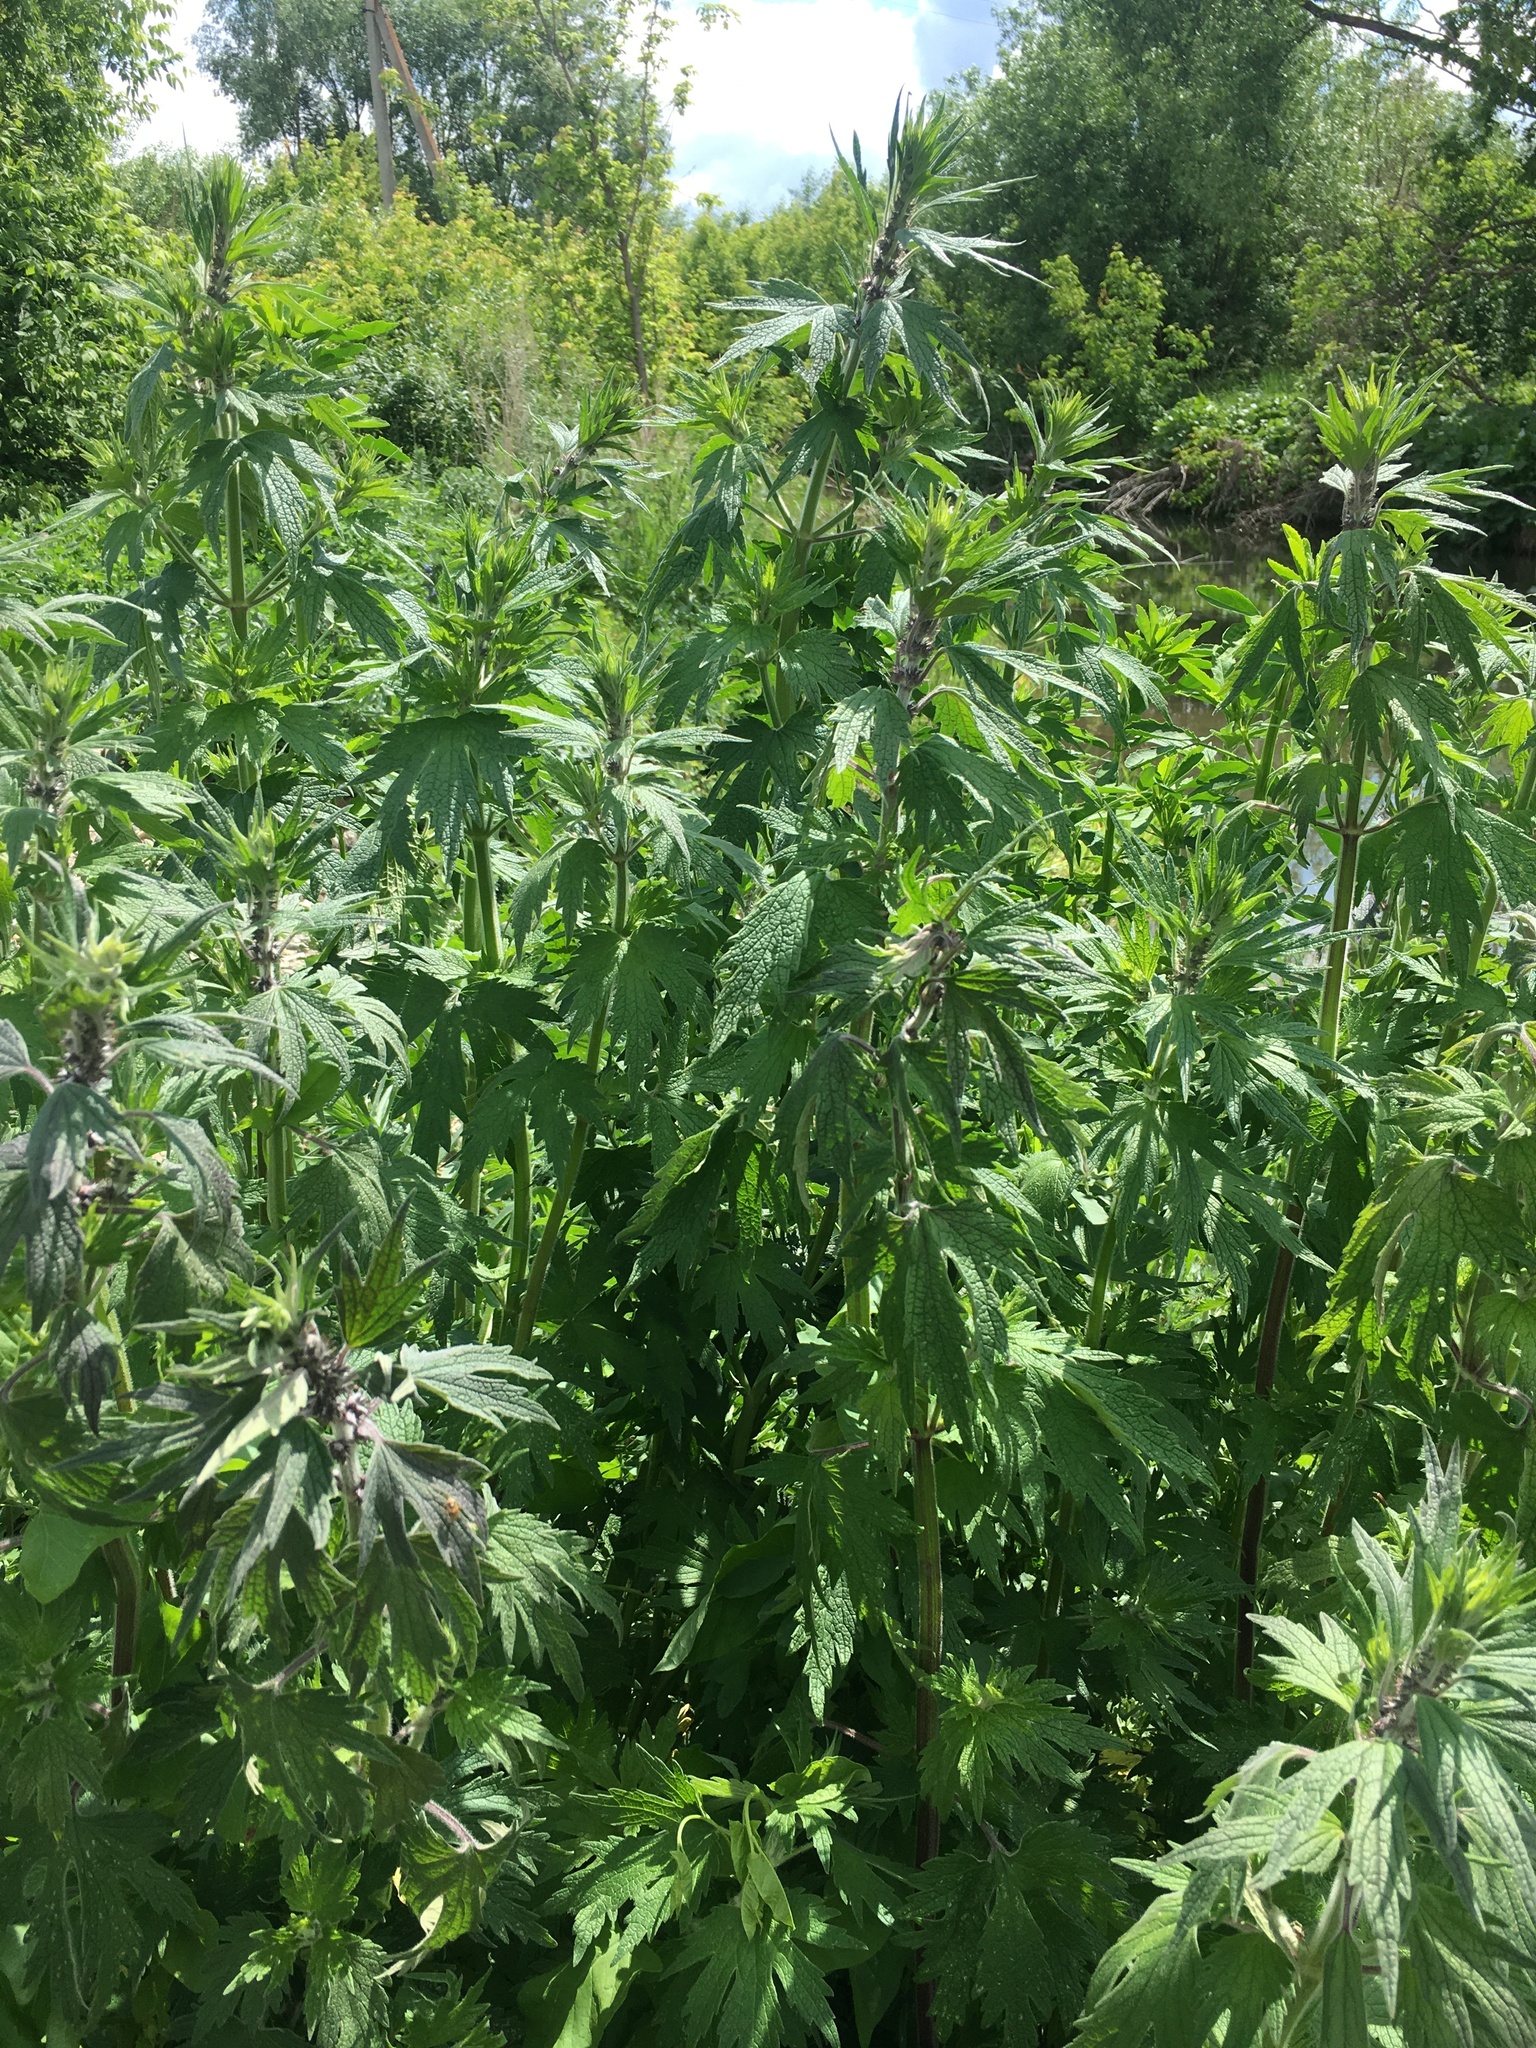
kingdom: Plantae
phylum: Tracheophyta
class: Magnoliopsida
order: Lamiales
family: Lamiaceae
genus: Leonurus
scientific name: Leonurus quinquelobatus
